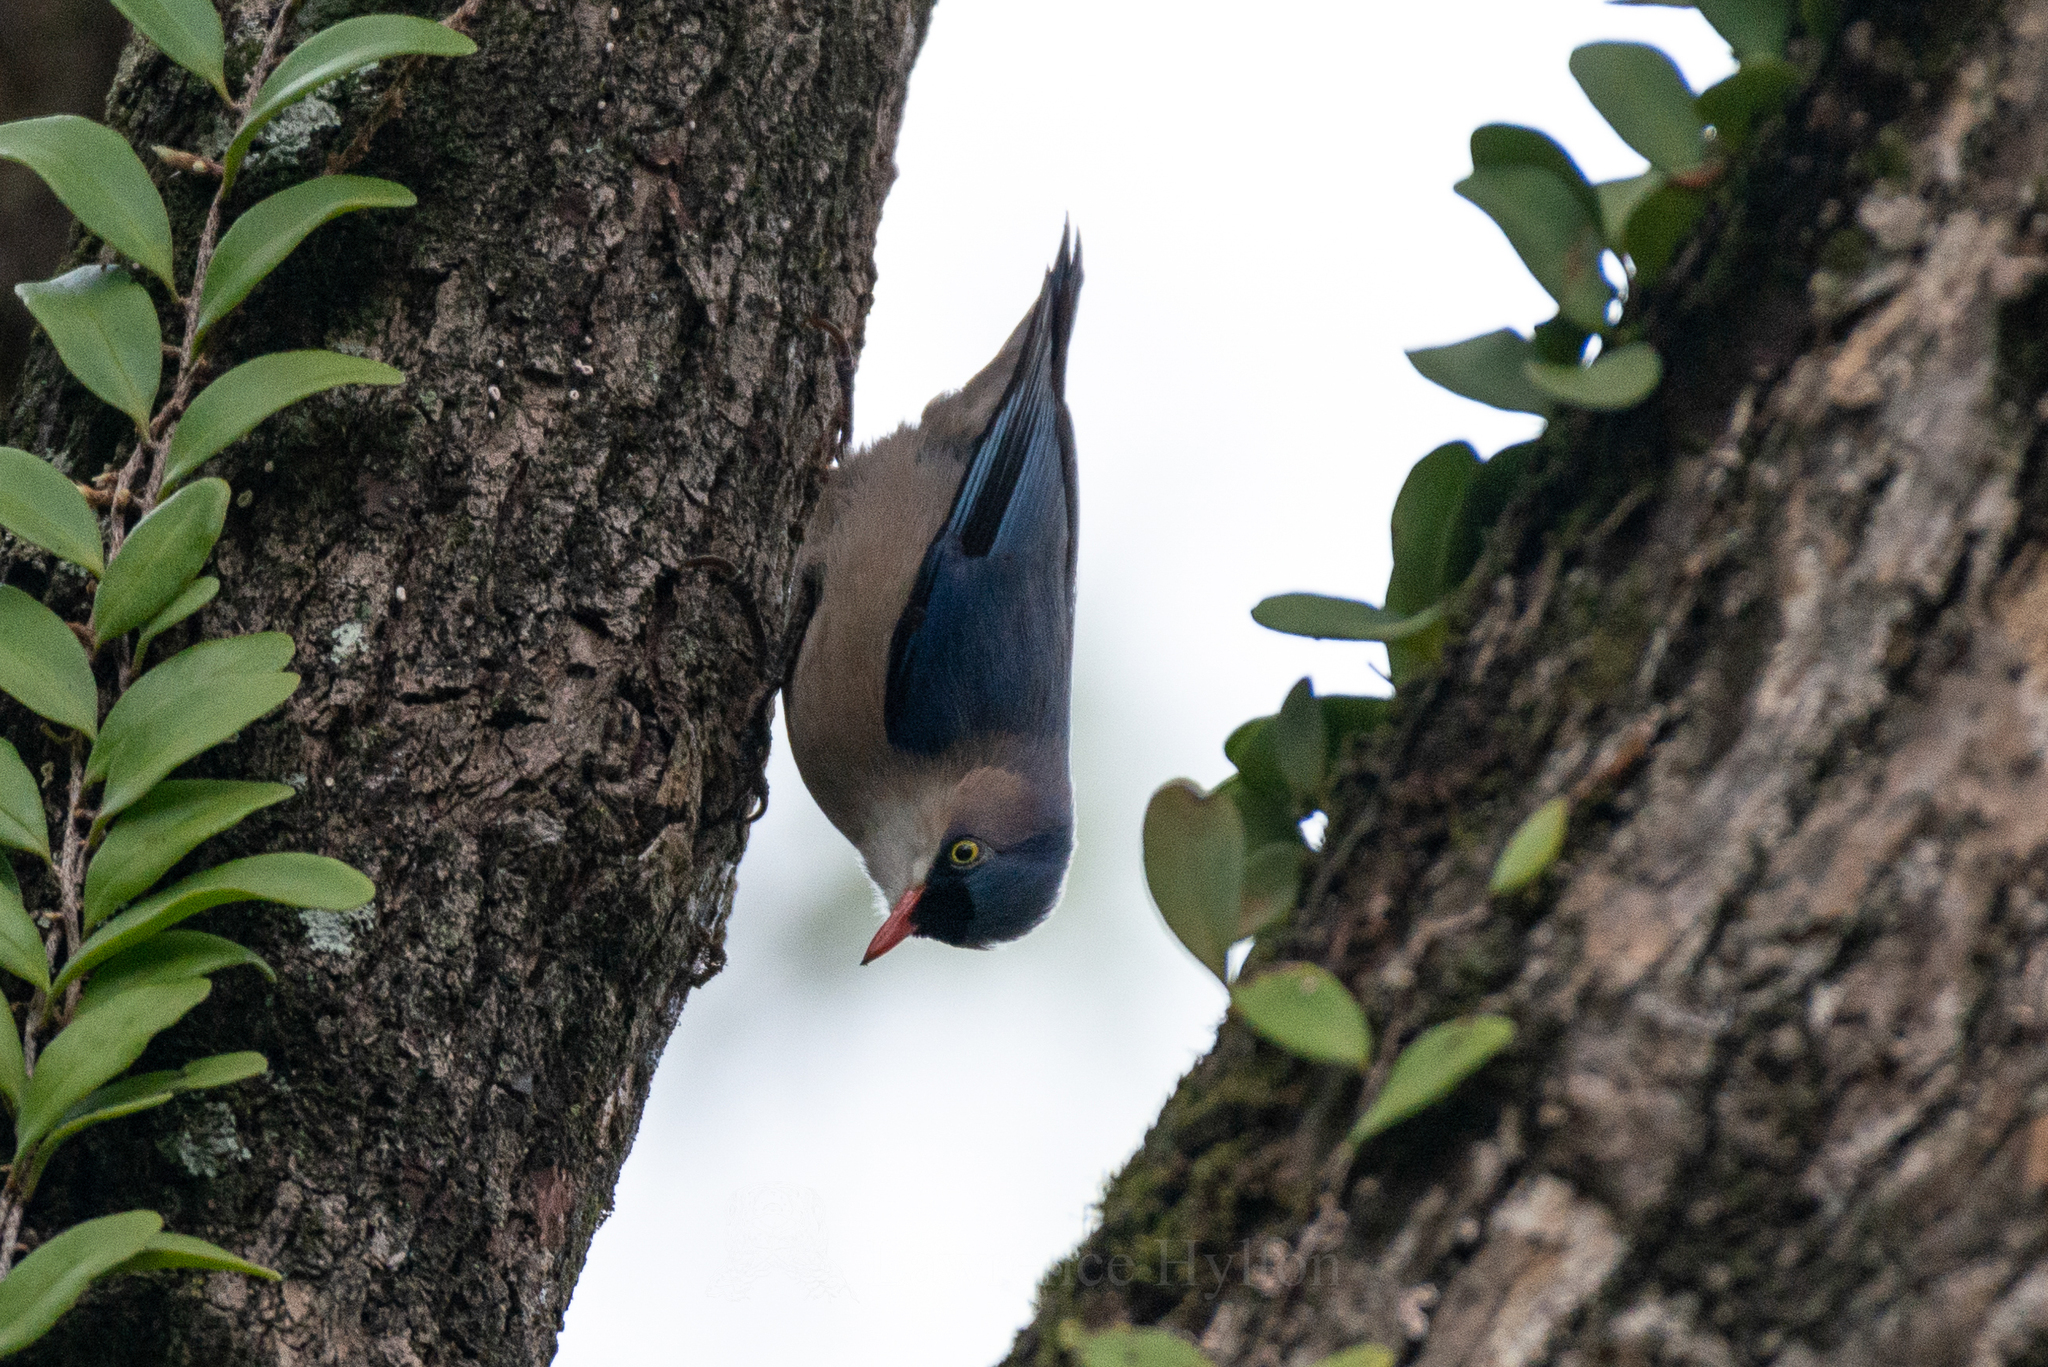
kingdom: Animalia
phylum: Chordata
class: Aves
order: Passeriformes
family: Sittidae
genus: Sitta
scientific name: Sitta frontalis
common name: Velvet-fronted nuthatch
